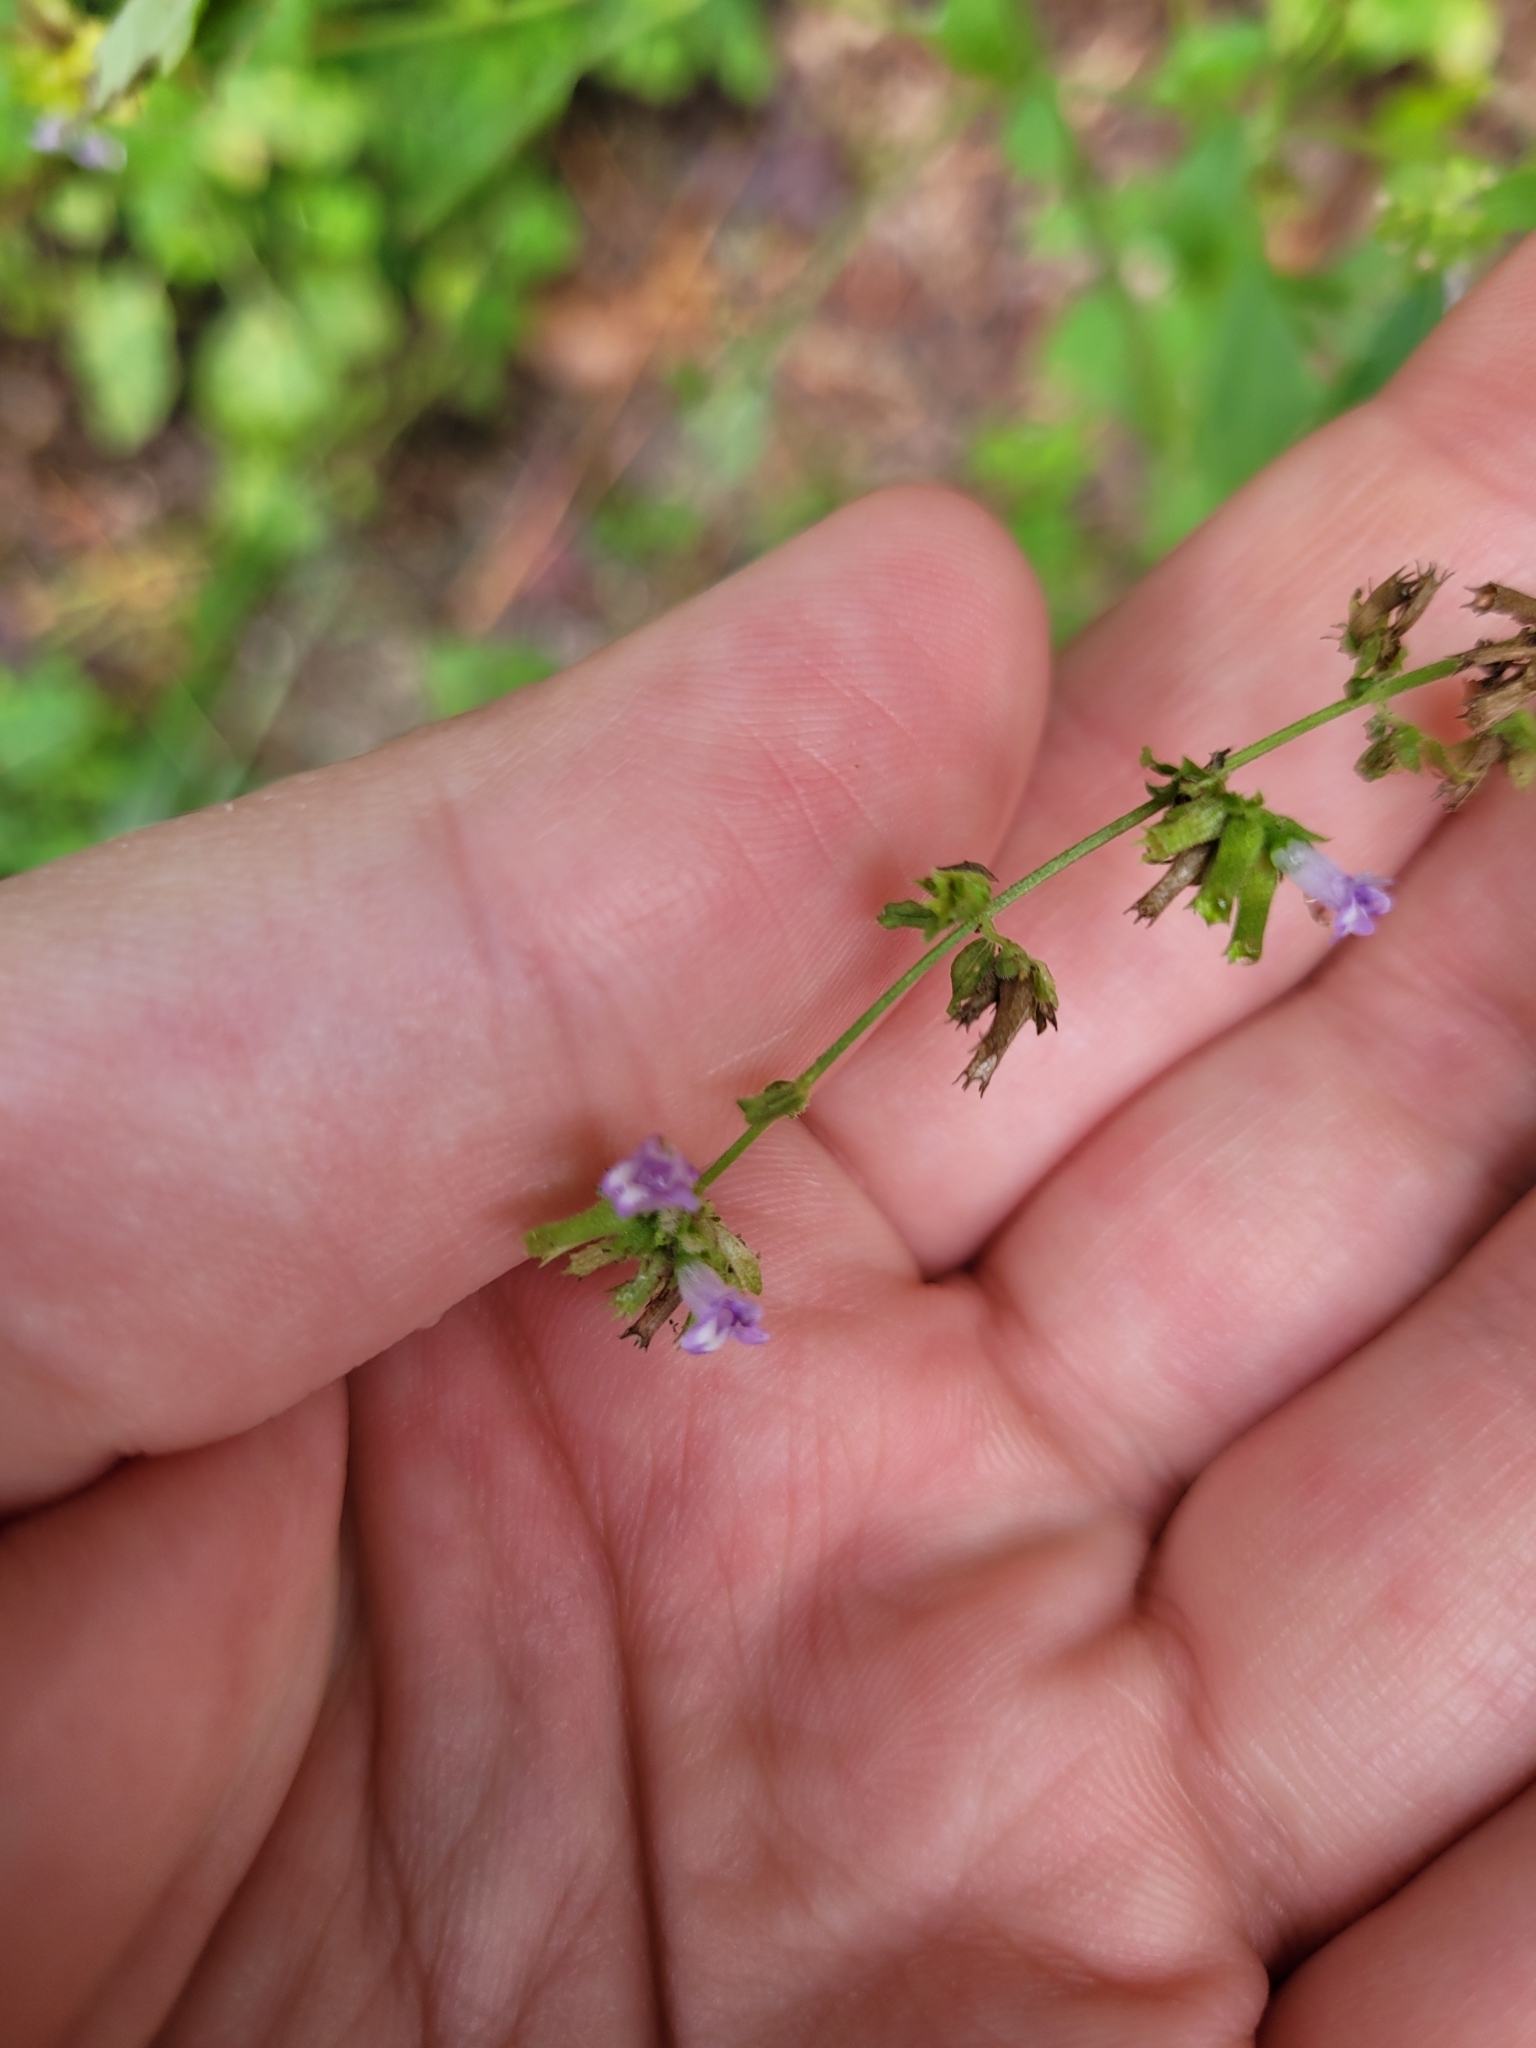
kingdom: Plantae
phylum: Tracheophyta
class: Magnoliopsida
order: Lamiales
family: Lamiaceae
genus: Cantinoa
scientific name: Cantinoa mutabilis
